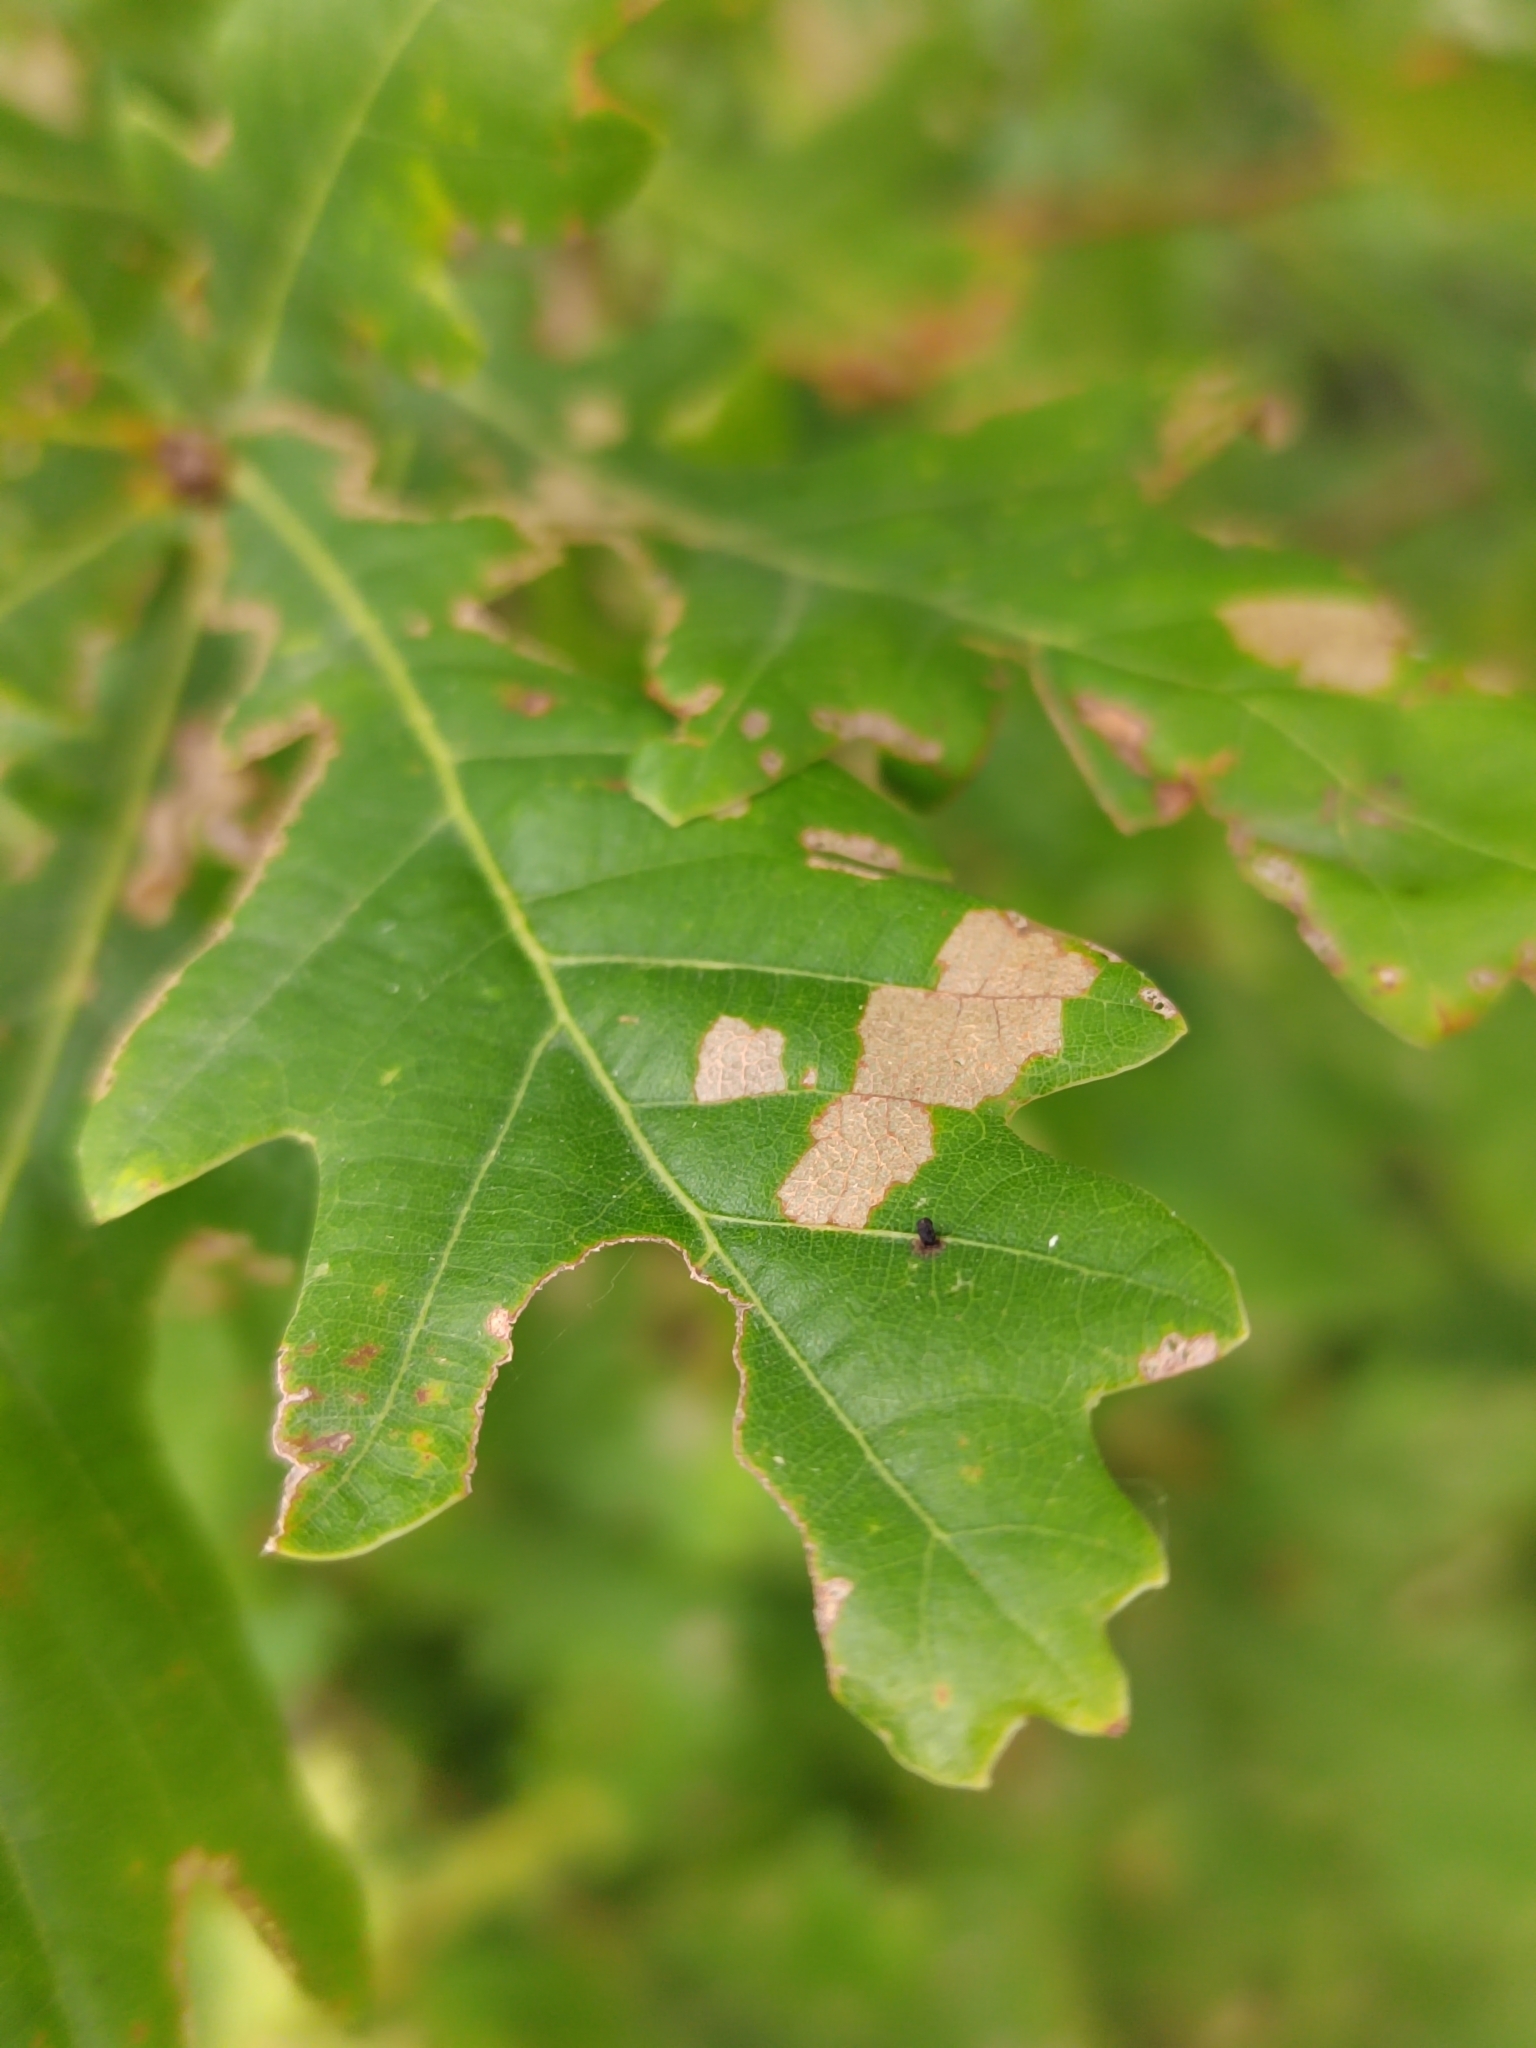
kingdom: Plantae
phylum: Tracheophyta
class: Magnoliopsida
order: Fagales
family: Fagaceae
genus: Quercus
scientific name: Quercus robur
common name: Pedunculate oak
